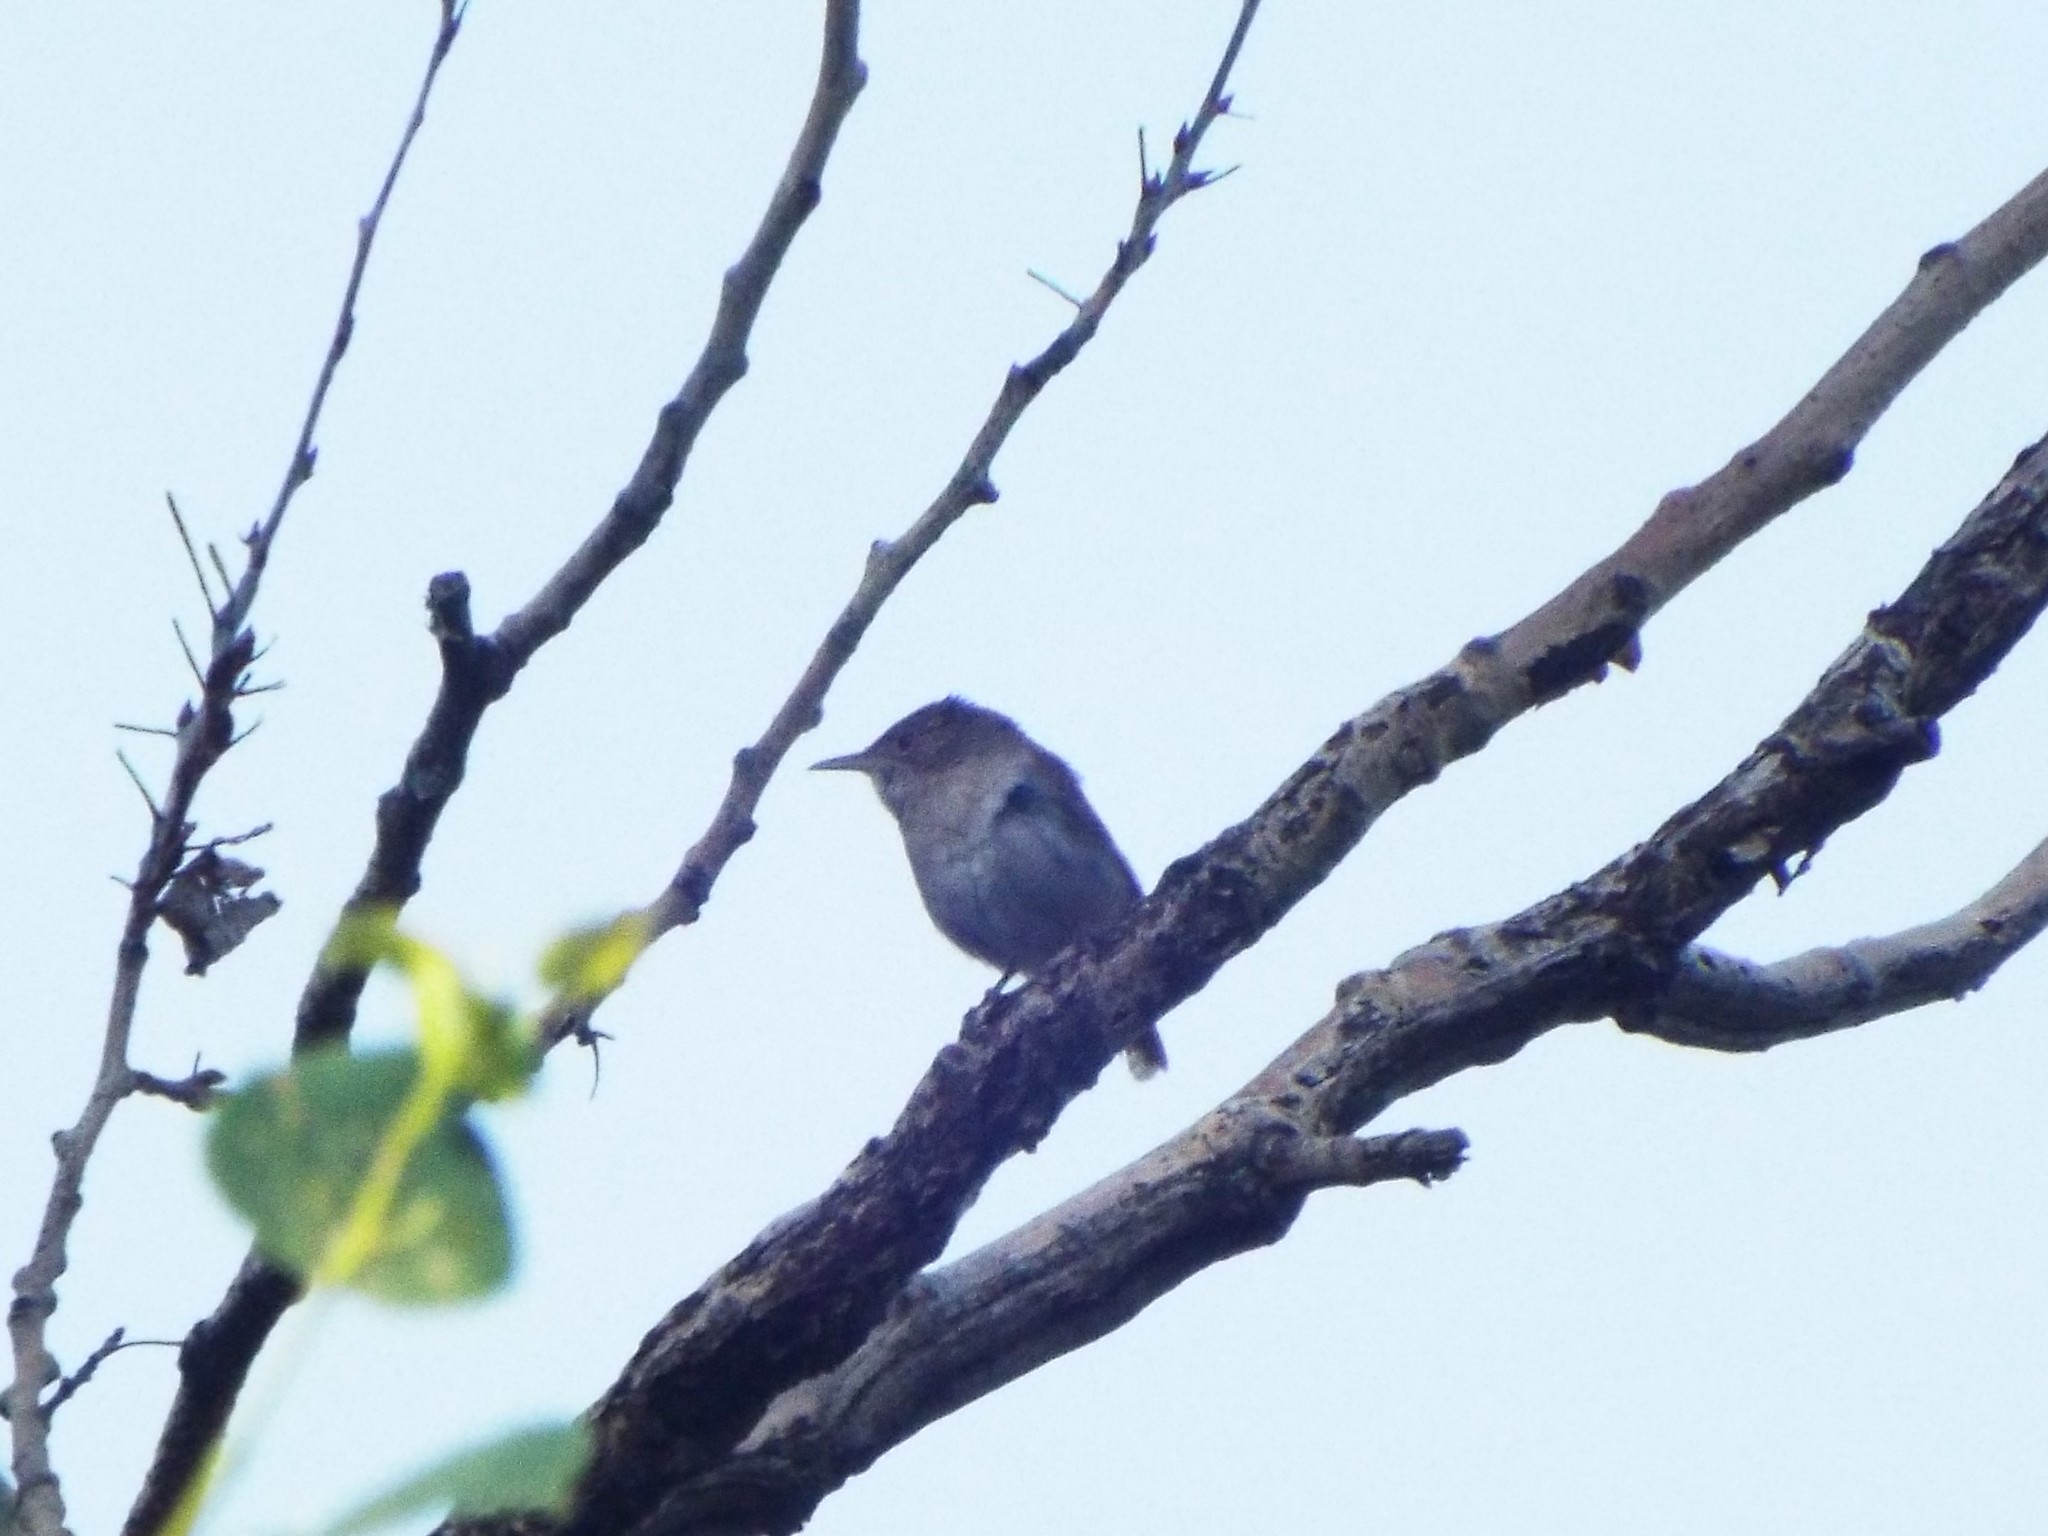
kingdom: Animalia
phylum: Chordata
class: Aves
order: Passeriformes
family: Troglodytidae
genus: Troglodytes
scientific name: Troglodytes aedon
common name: House wren
